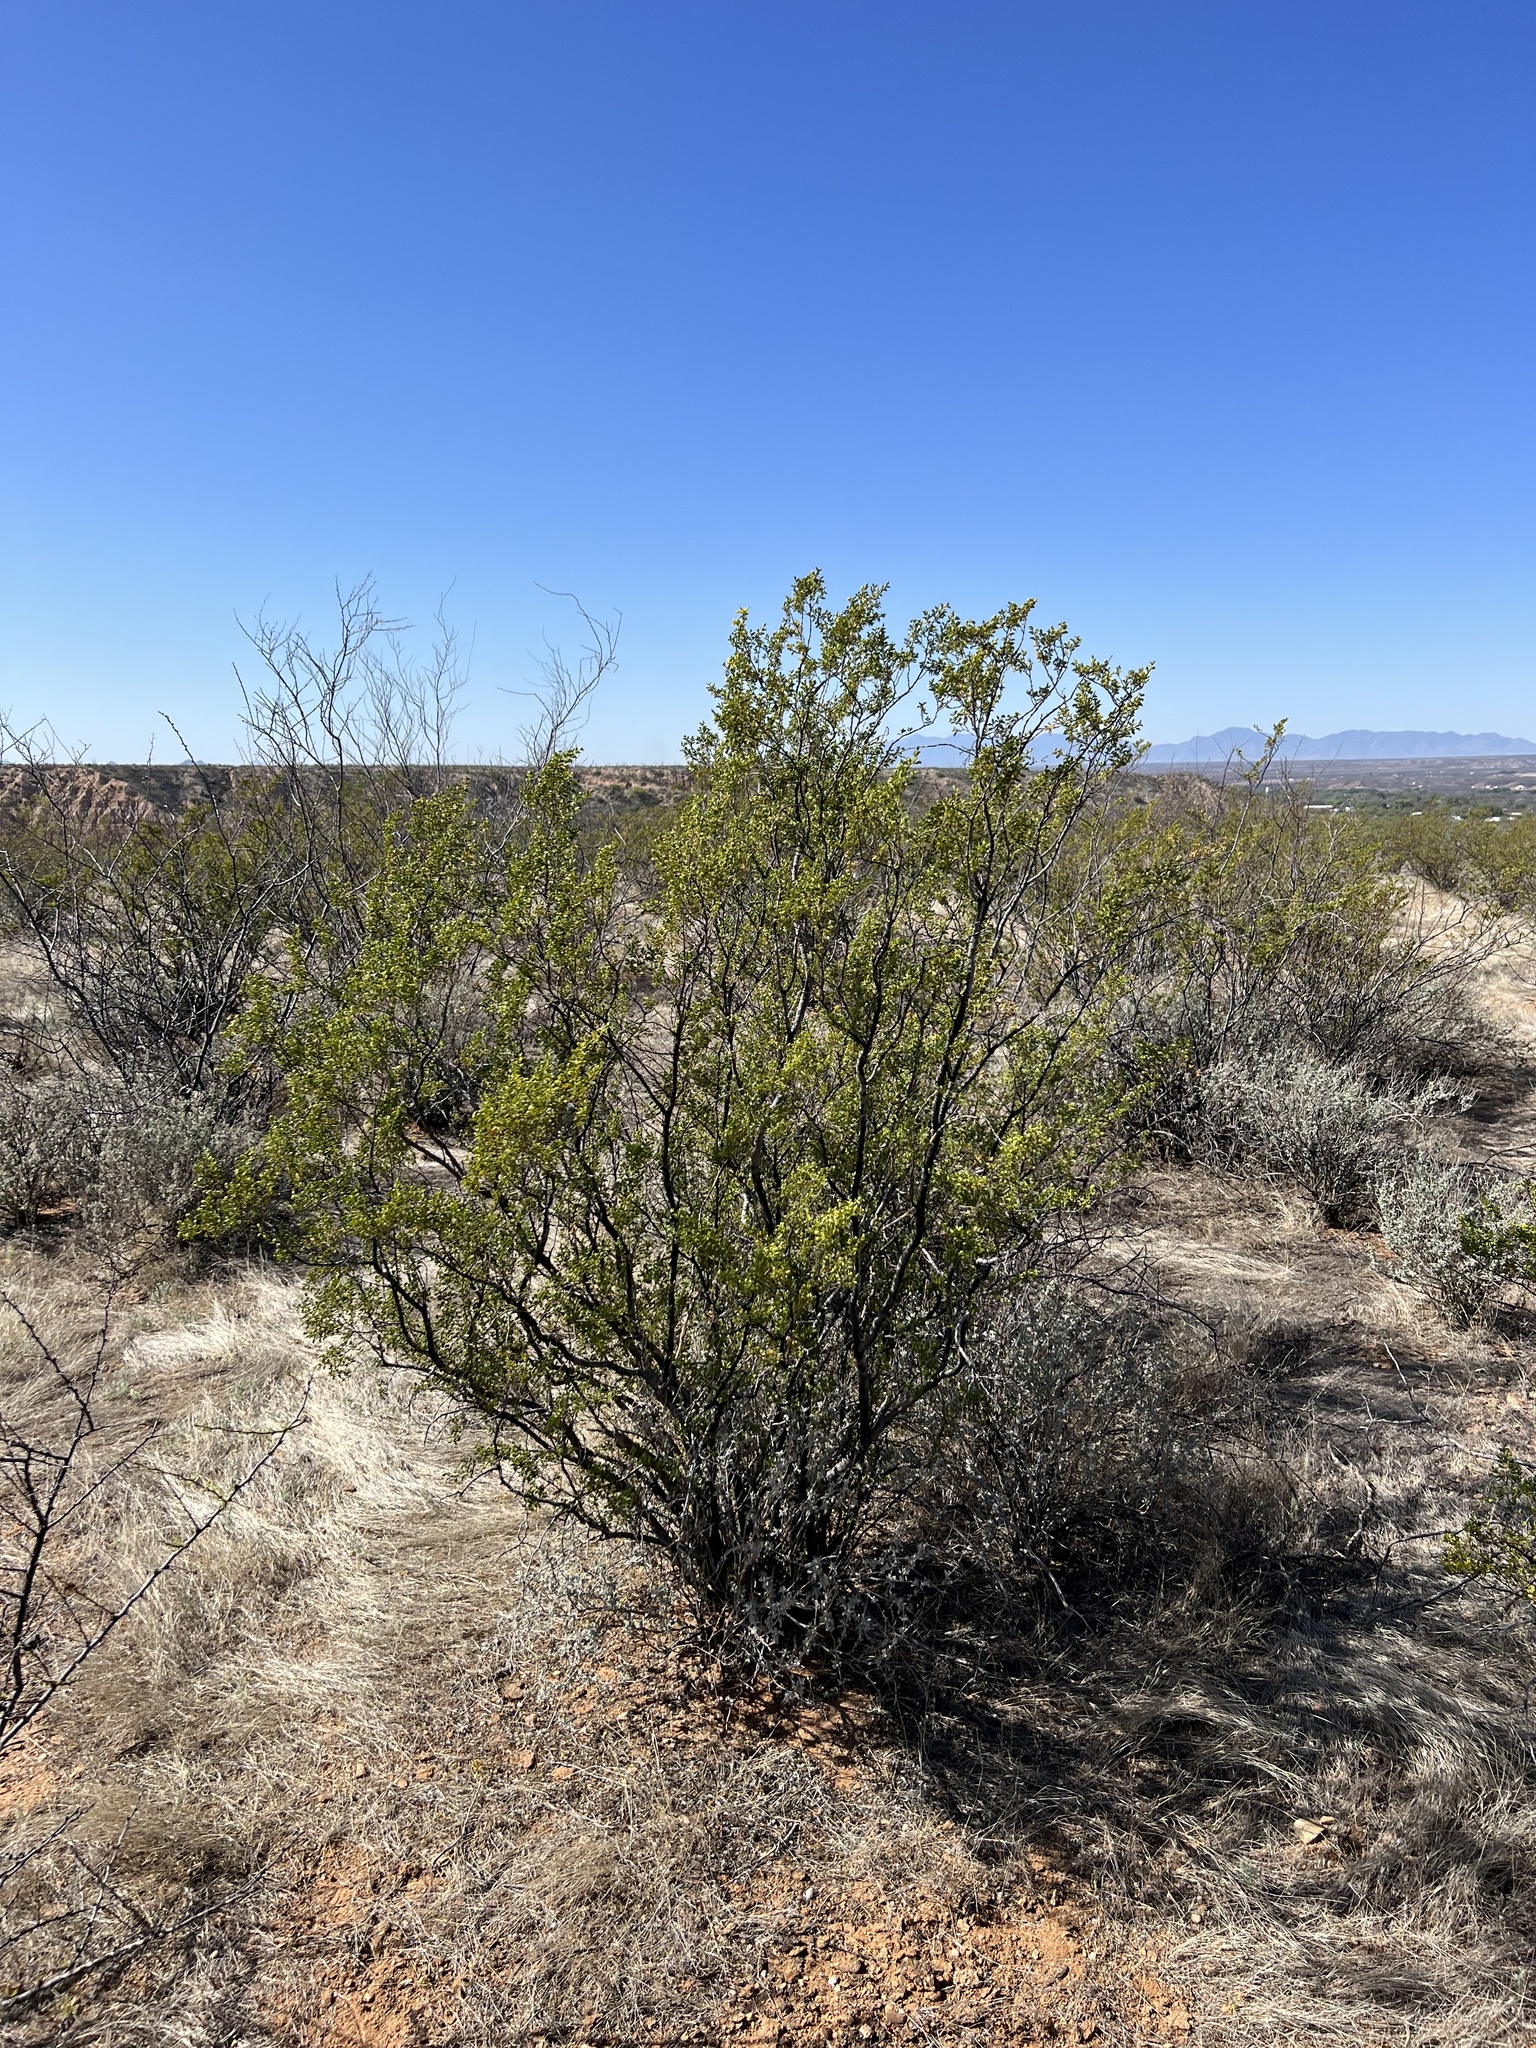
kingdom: Plantae
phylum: Tracheophyta
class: Magnoliopsida
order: Zygophyllales
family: Zygophyllaceae
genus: Larrea
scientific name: Larrea tridentata
